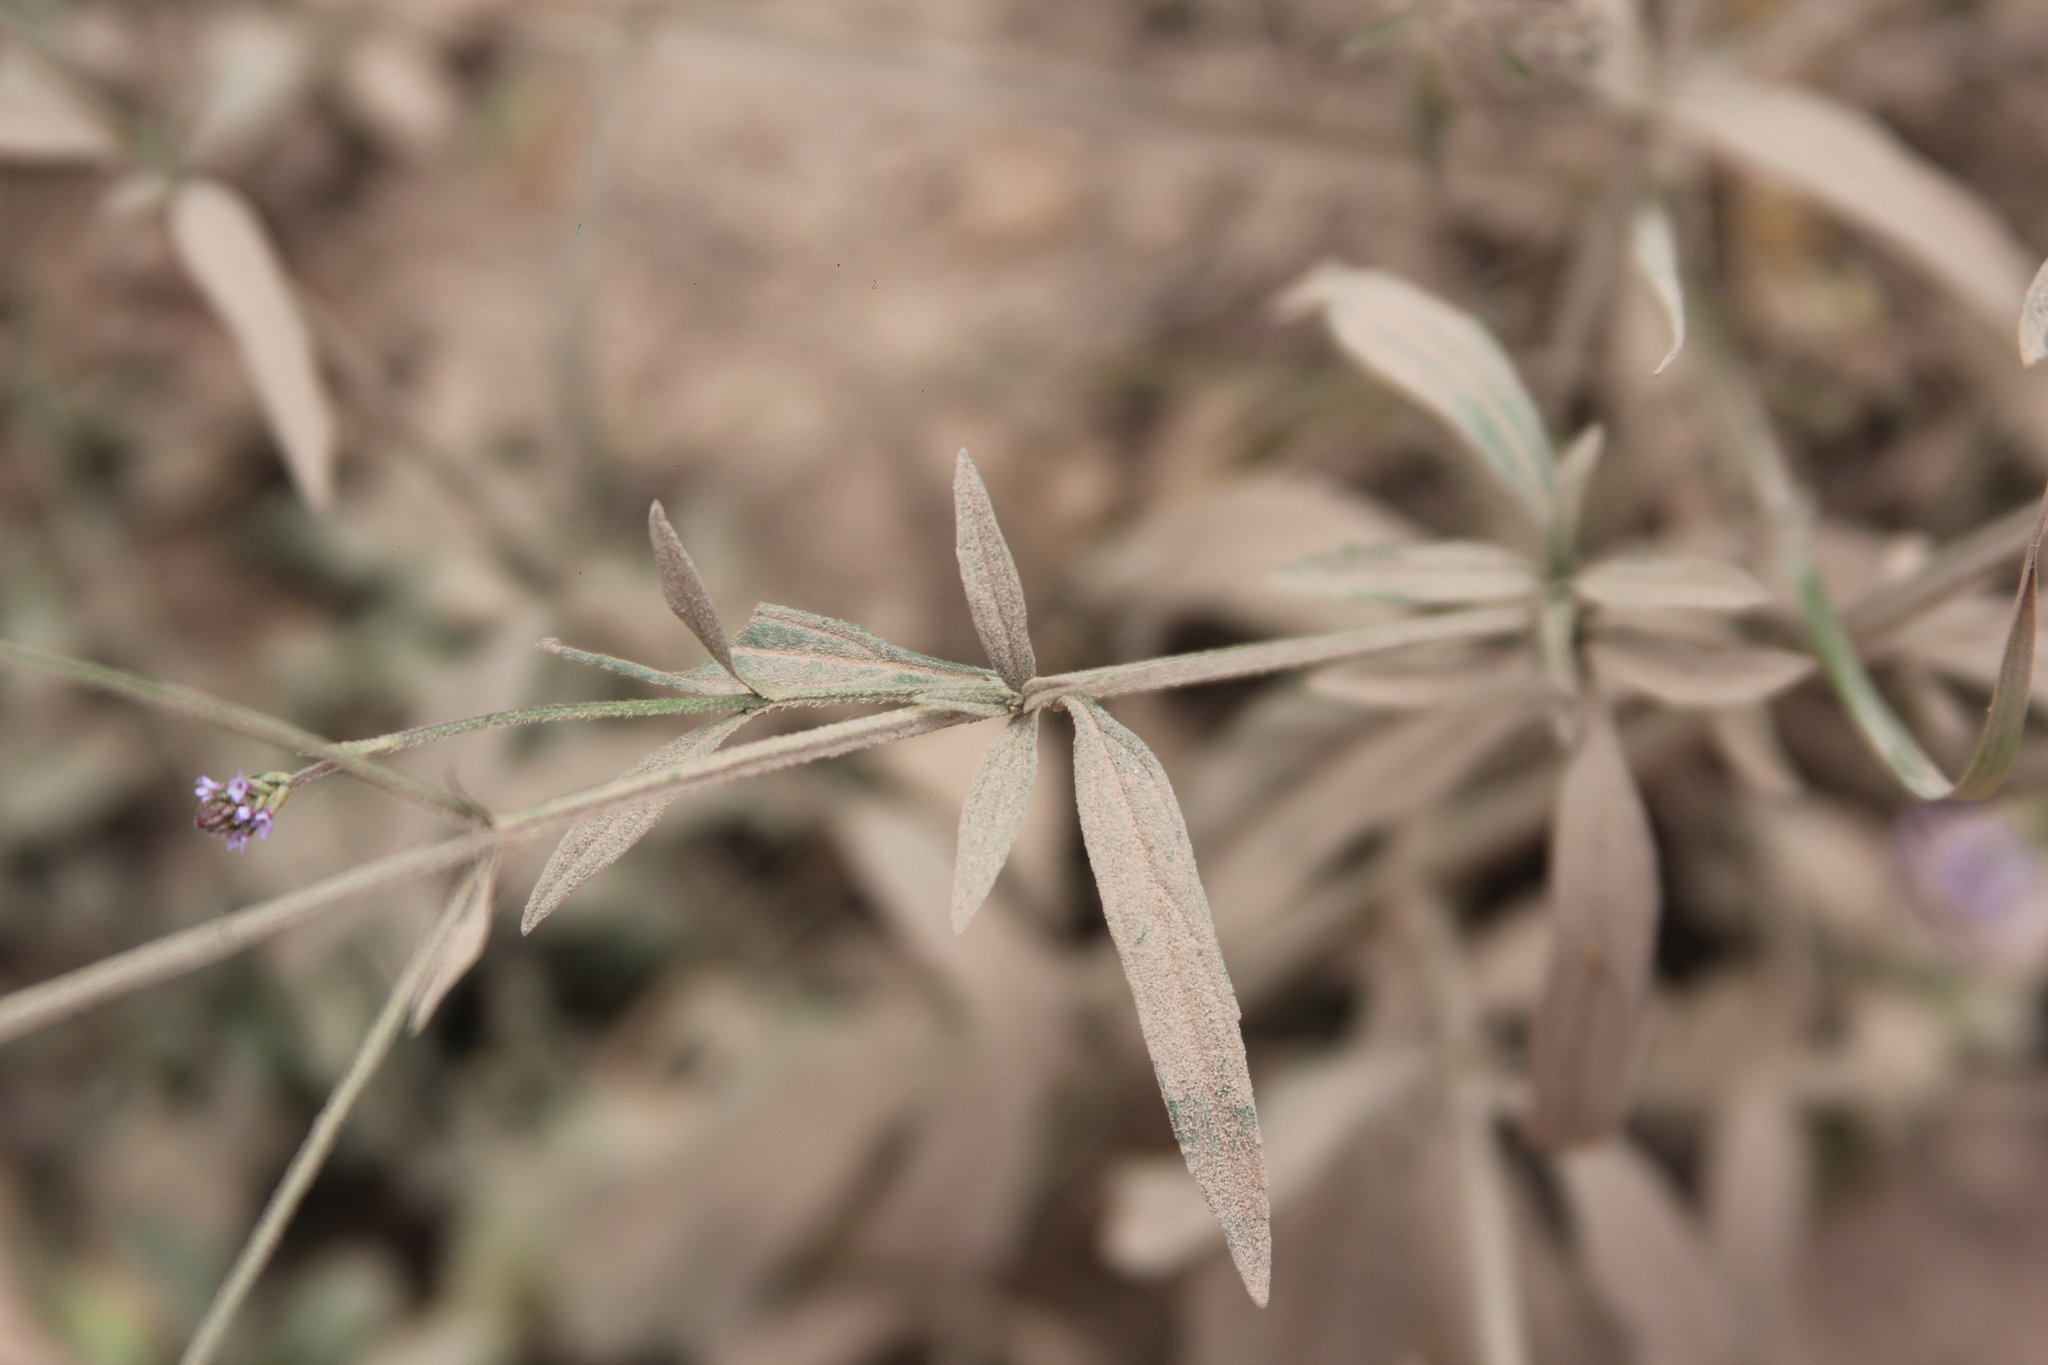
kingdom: Plantae
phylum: Tracheophyta
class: Magnoliopsida
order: Lamiales
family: Verbenaceae
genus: Verbena
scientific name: Verbena litoralis
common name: Seashore vervain
